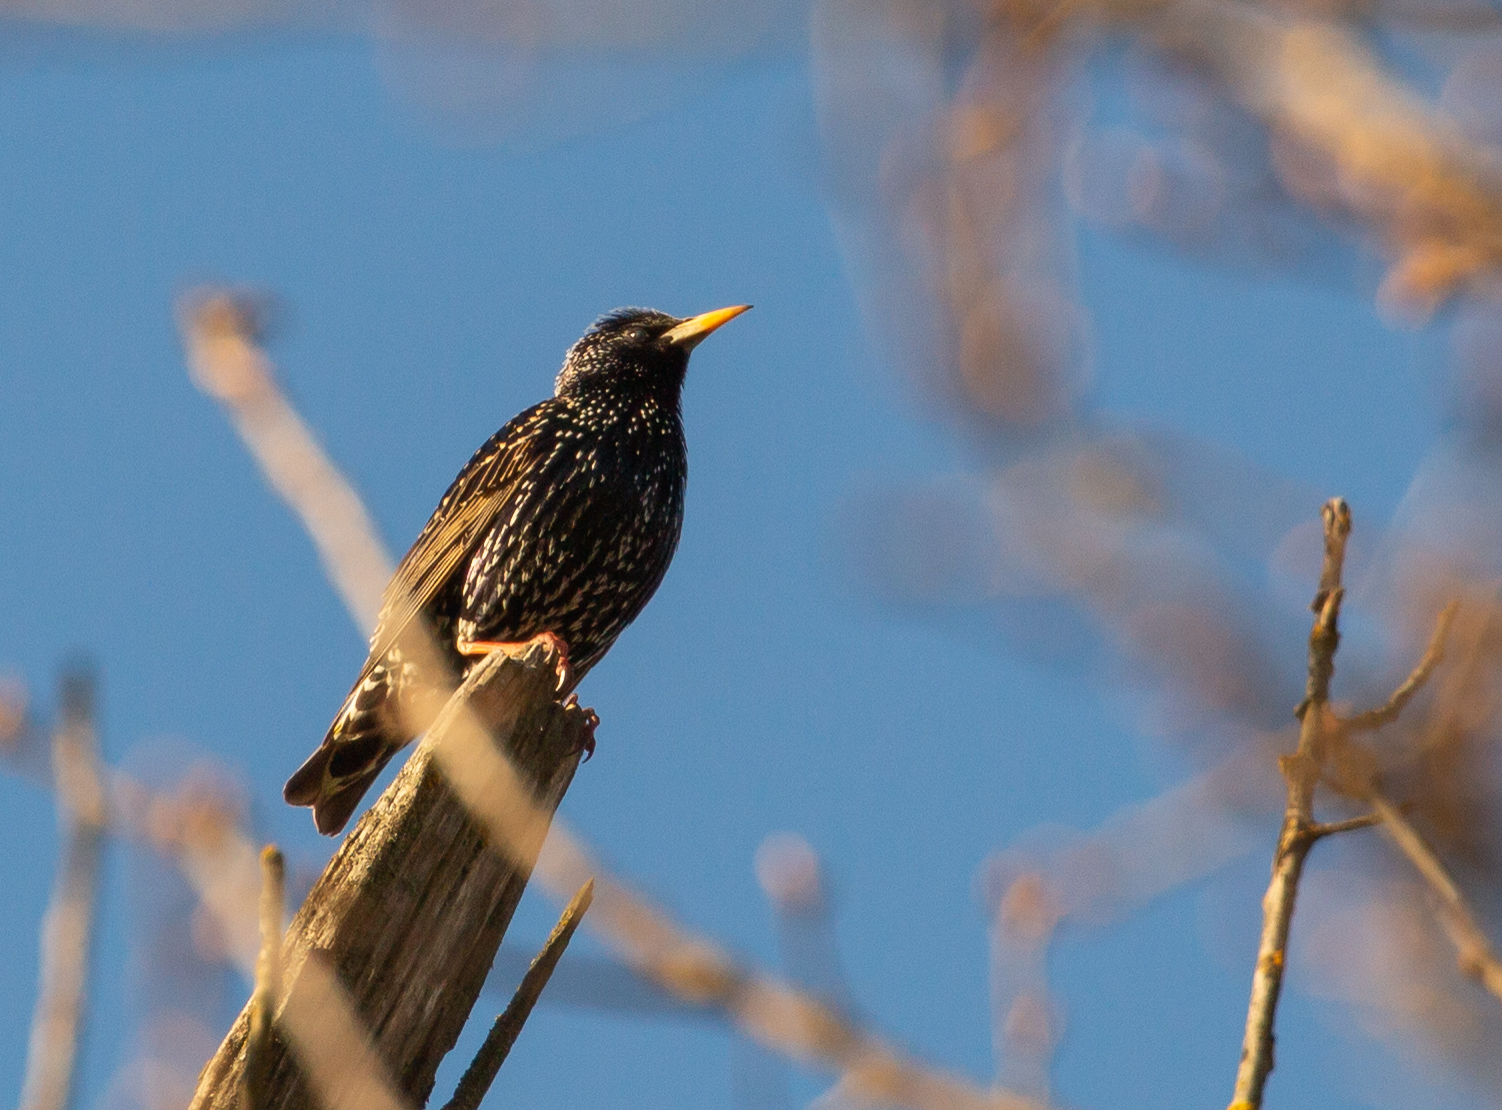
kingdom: Animalia
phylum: Chordata
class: Aves
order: Passeriformes
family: Sturnidae
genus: Sturnus
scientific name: Sturnus vulgaris
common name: Common starling
